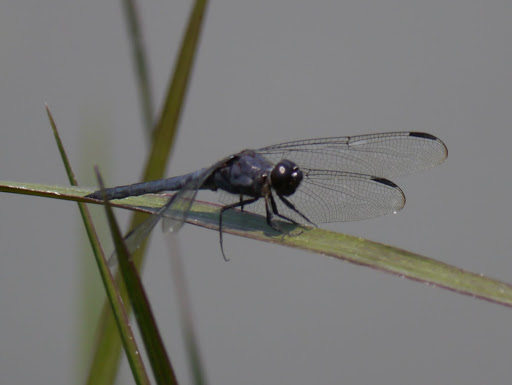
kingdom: Animalia
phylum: Arthropoda
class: Insecta
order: Odonata
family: Libellulidae
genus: Libellula
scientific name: Libellula incesta
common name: Slaty skimmer
